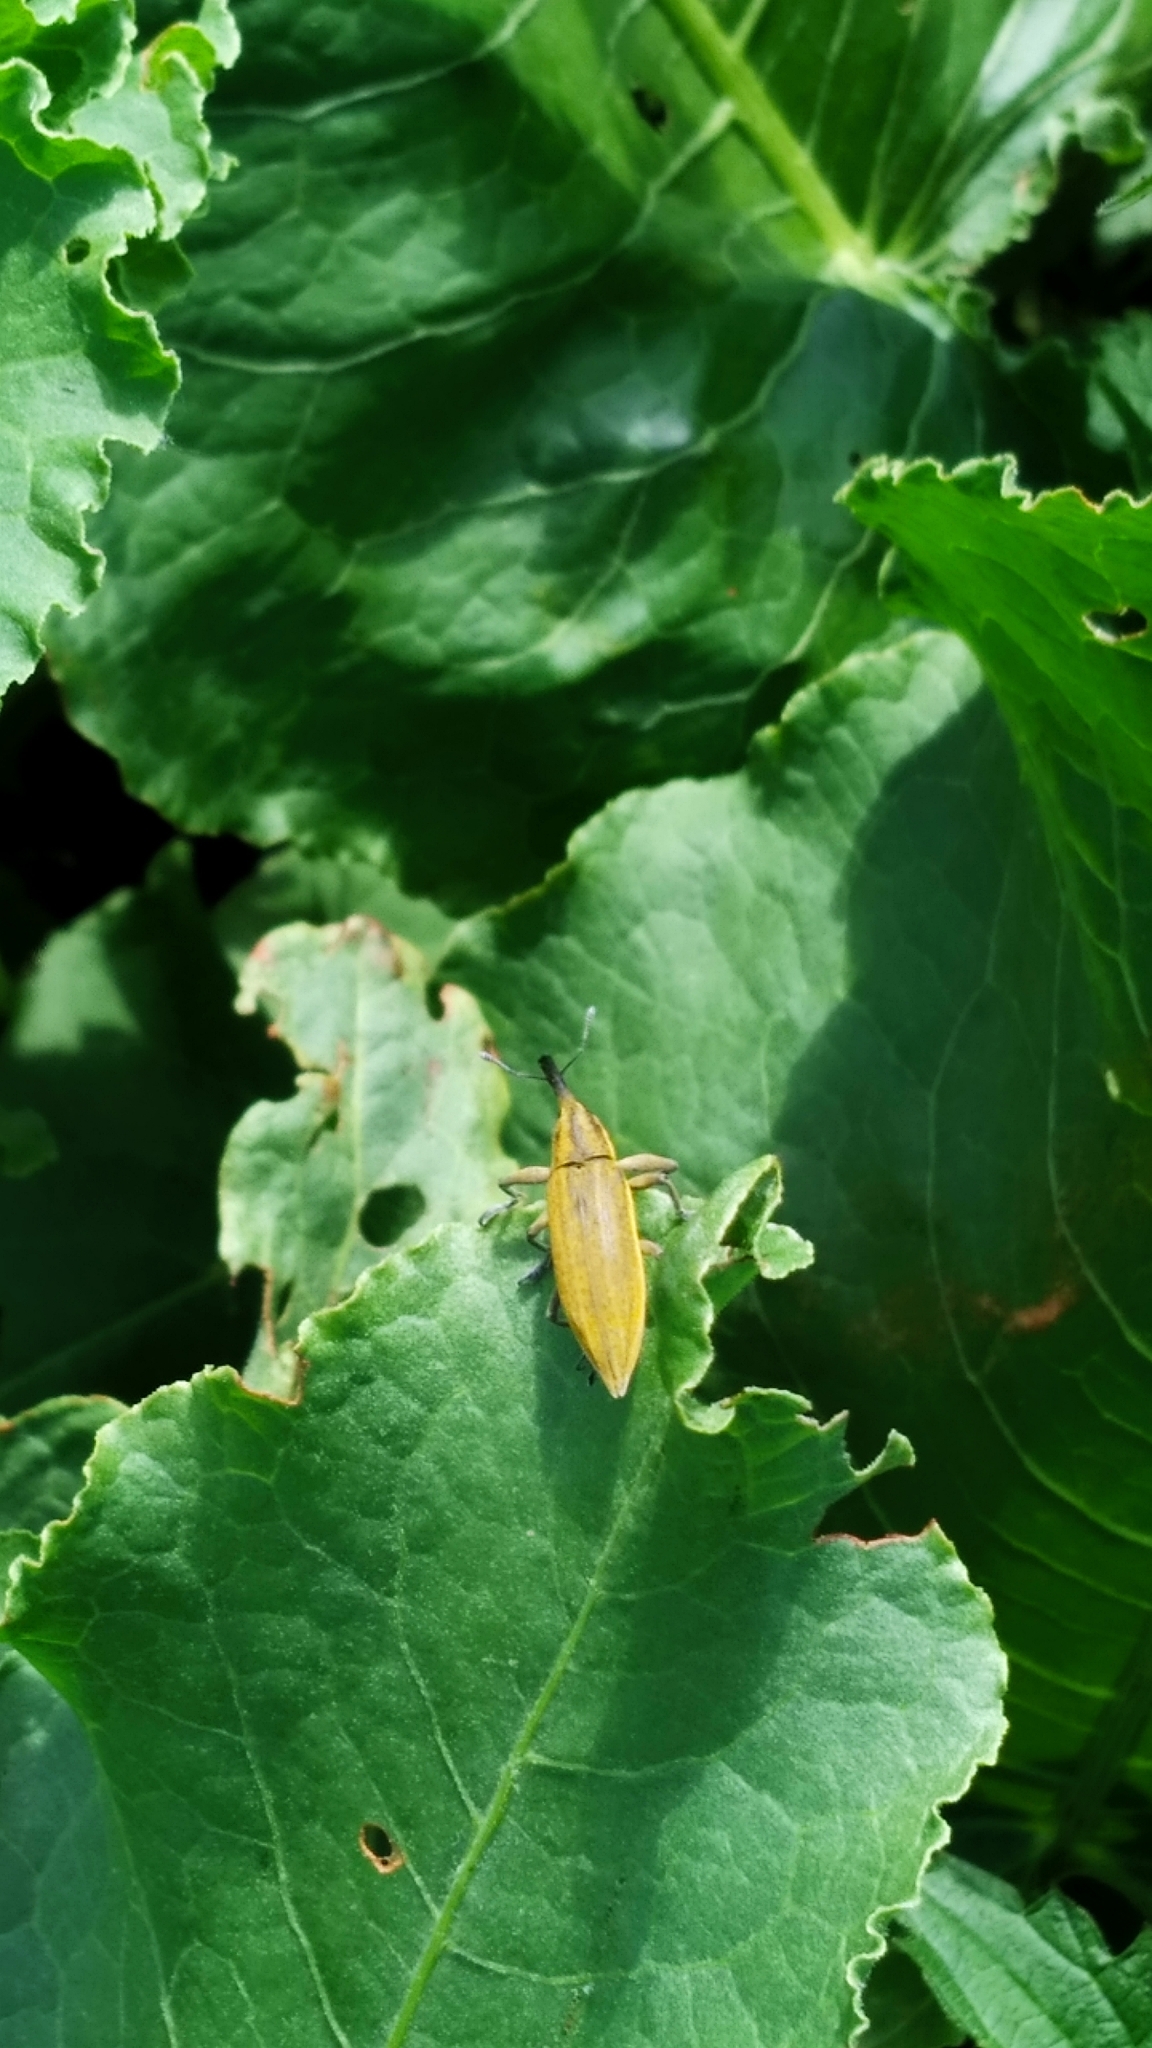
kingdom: Animalia
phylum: Arthropoda
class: Insecta
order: Coleoptera
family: Curculionidae
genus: Lixus
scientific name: Lixus iridis
